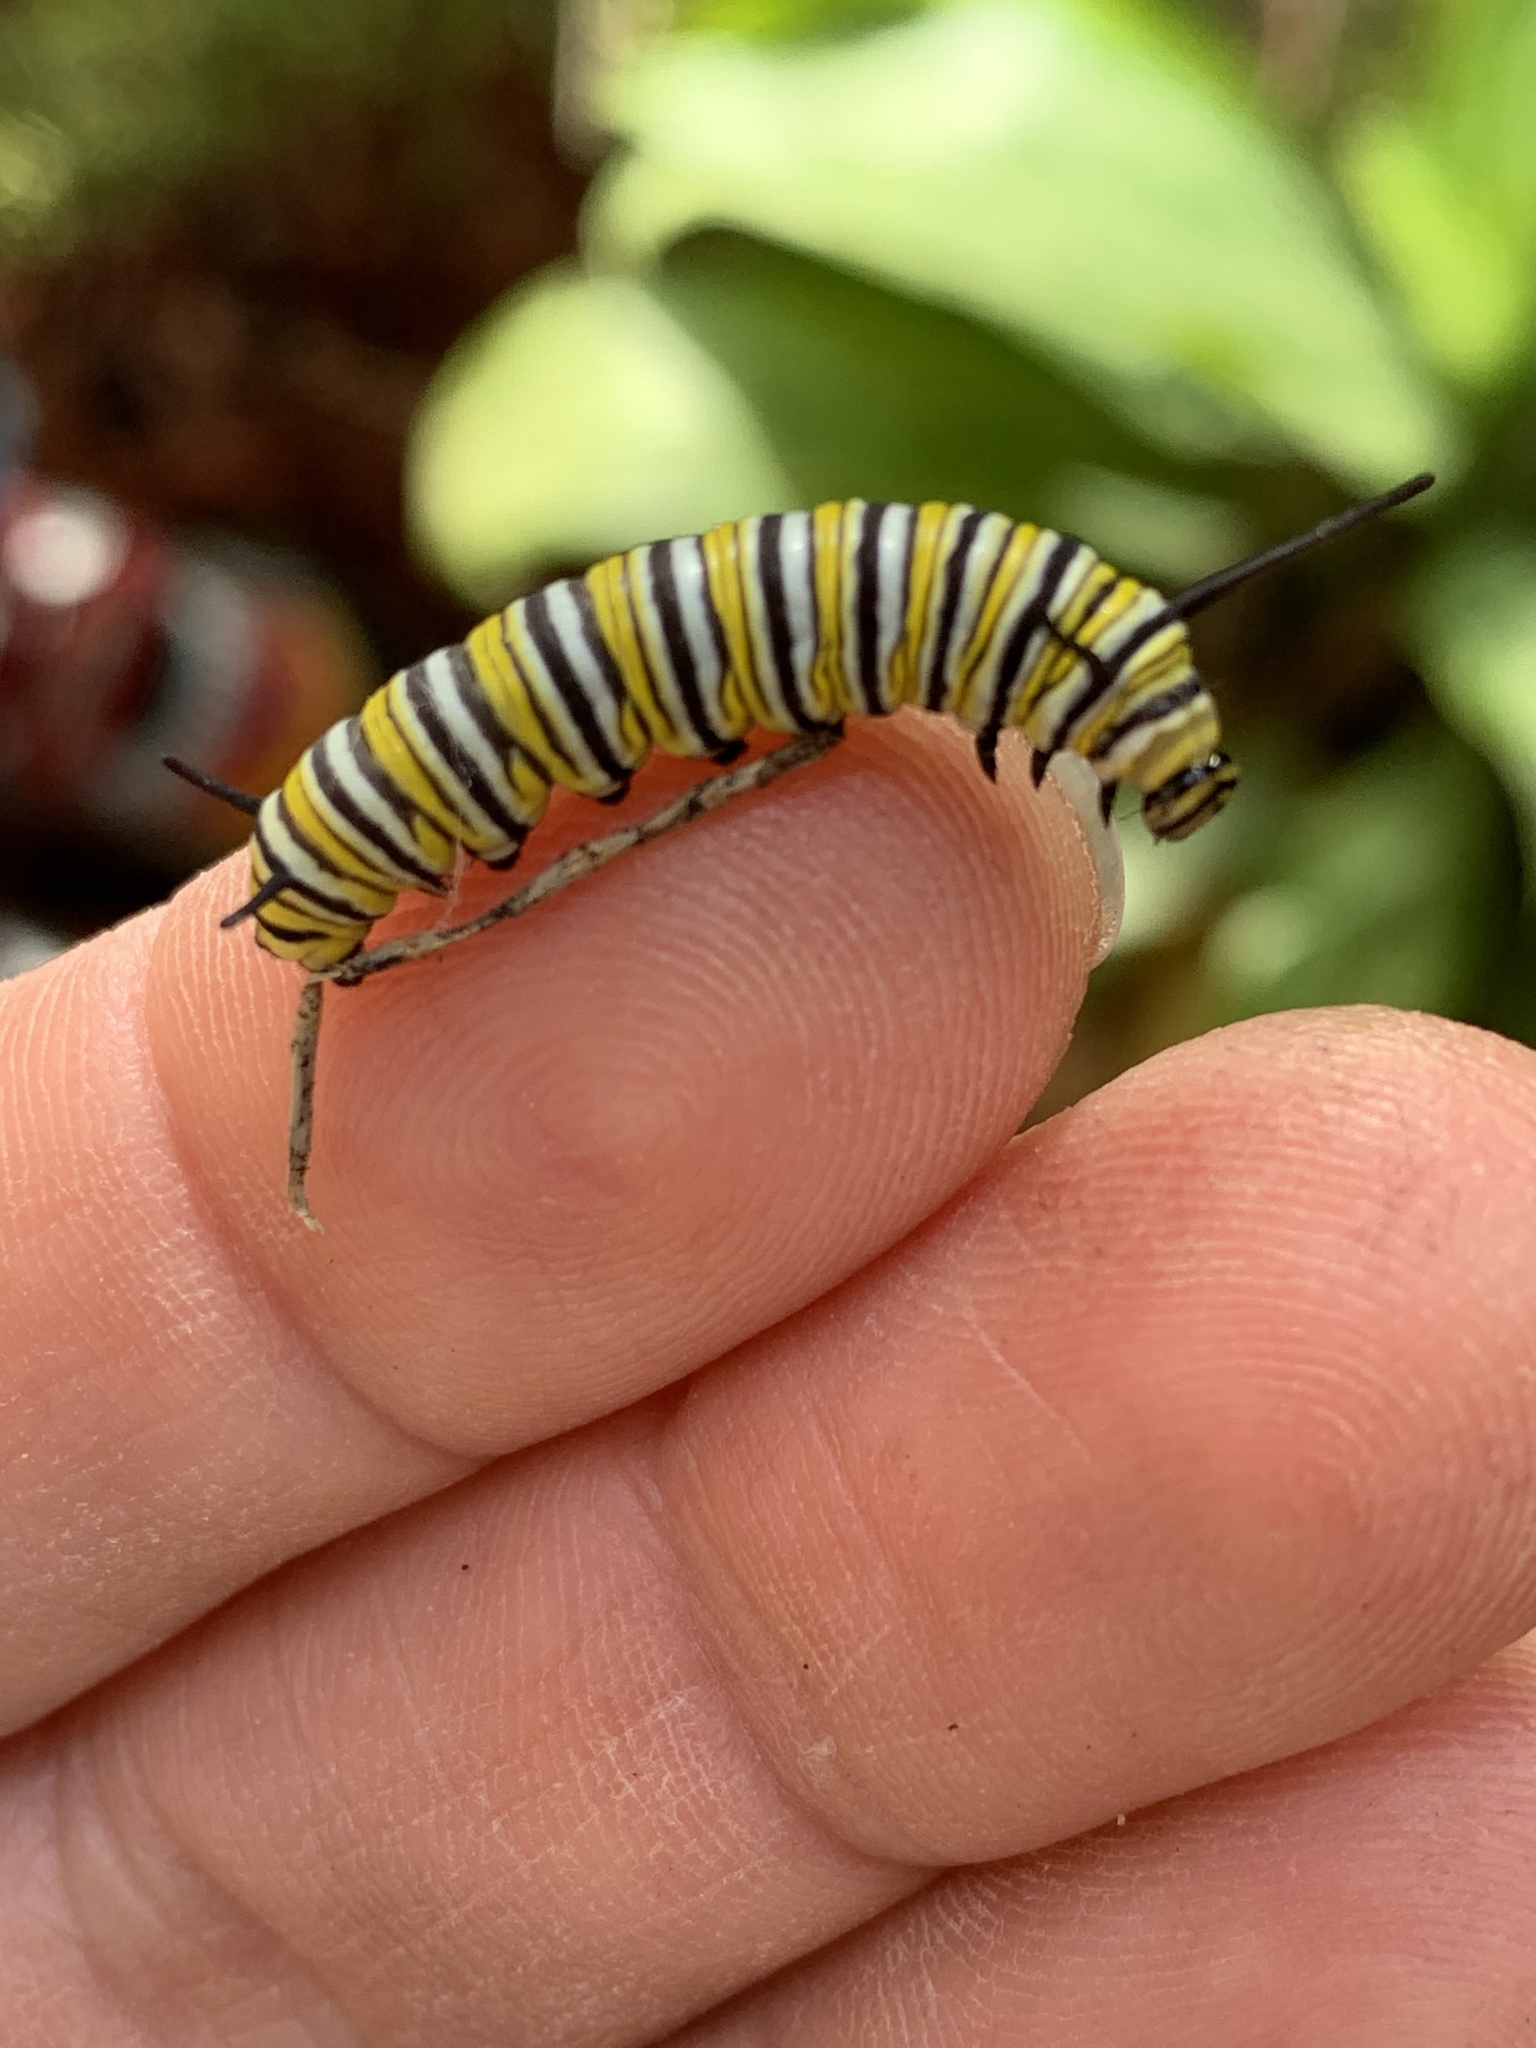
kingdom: Animalia
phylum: Arthropoda
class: Insecta
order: Lepidoptera
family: Nymphalidae
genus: Danaus
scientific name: Danaus plexippus
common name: Monarch
